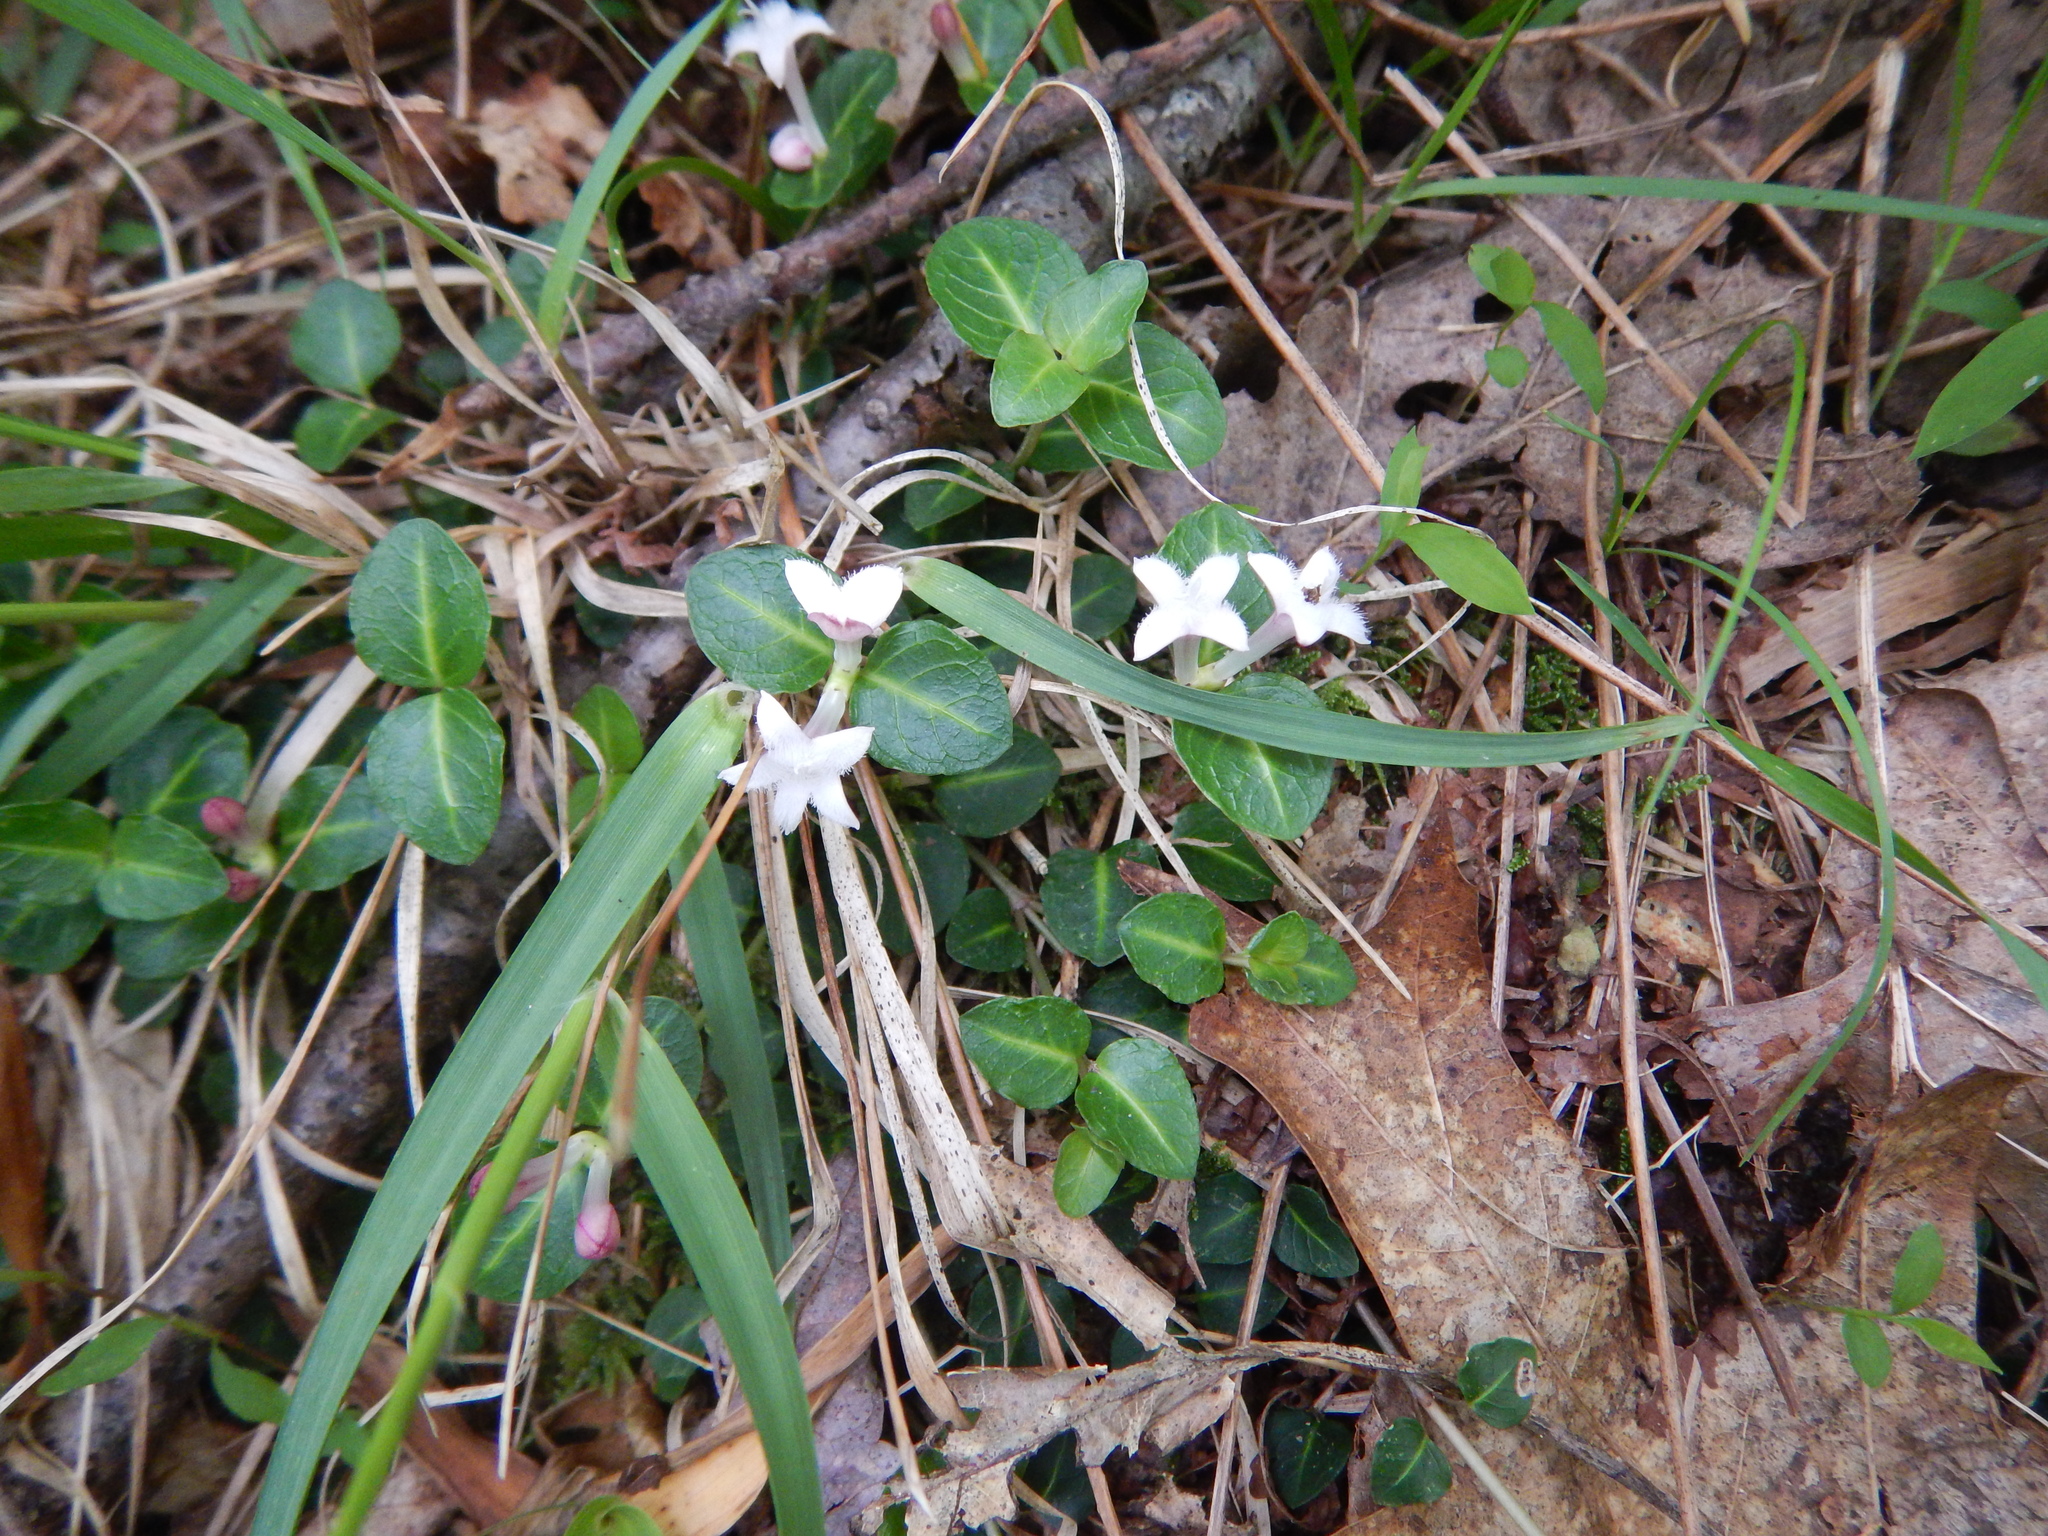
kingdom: Plantae
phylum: Tracheophyta
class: Magnoliopsida
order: Gentianales
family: Rubiaceae
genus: Mitchella
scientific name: Mitchella repens
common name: Partridge-berry
